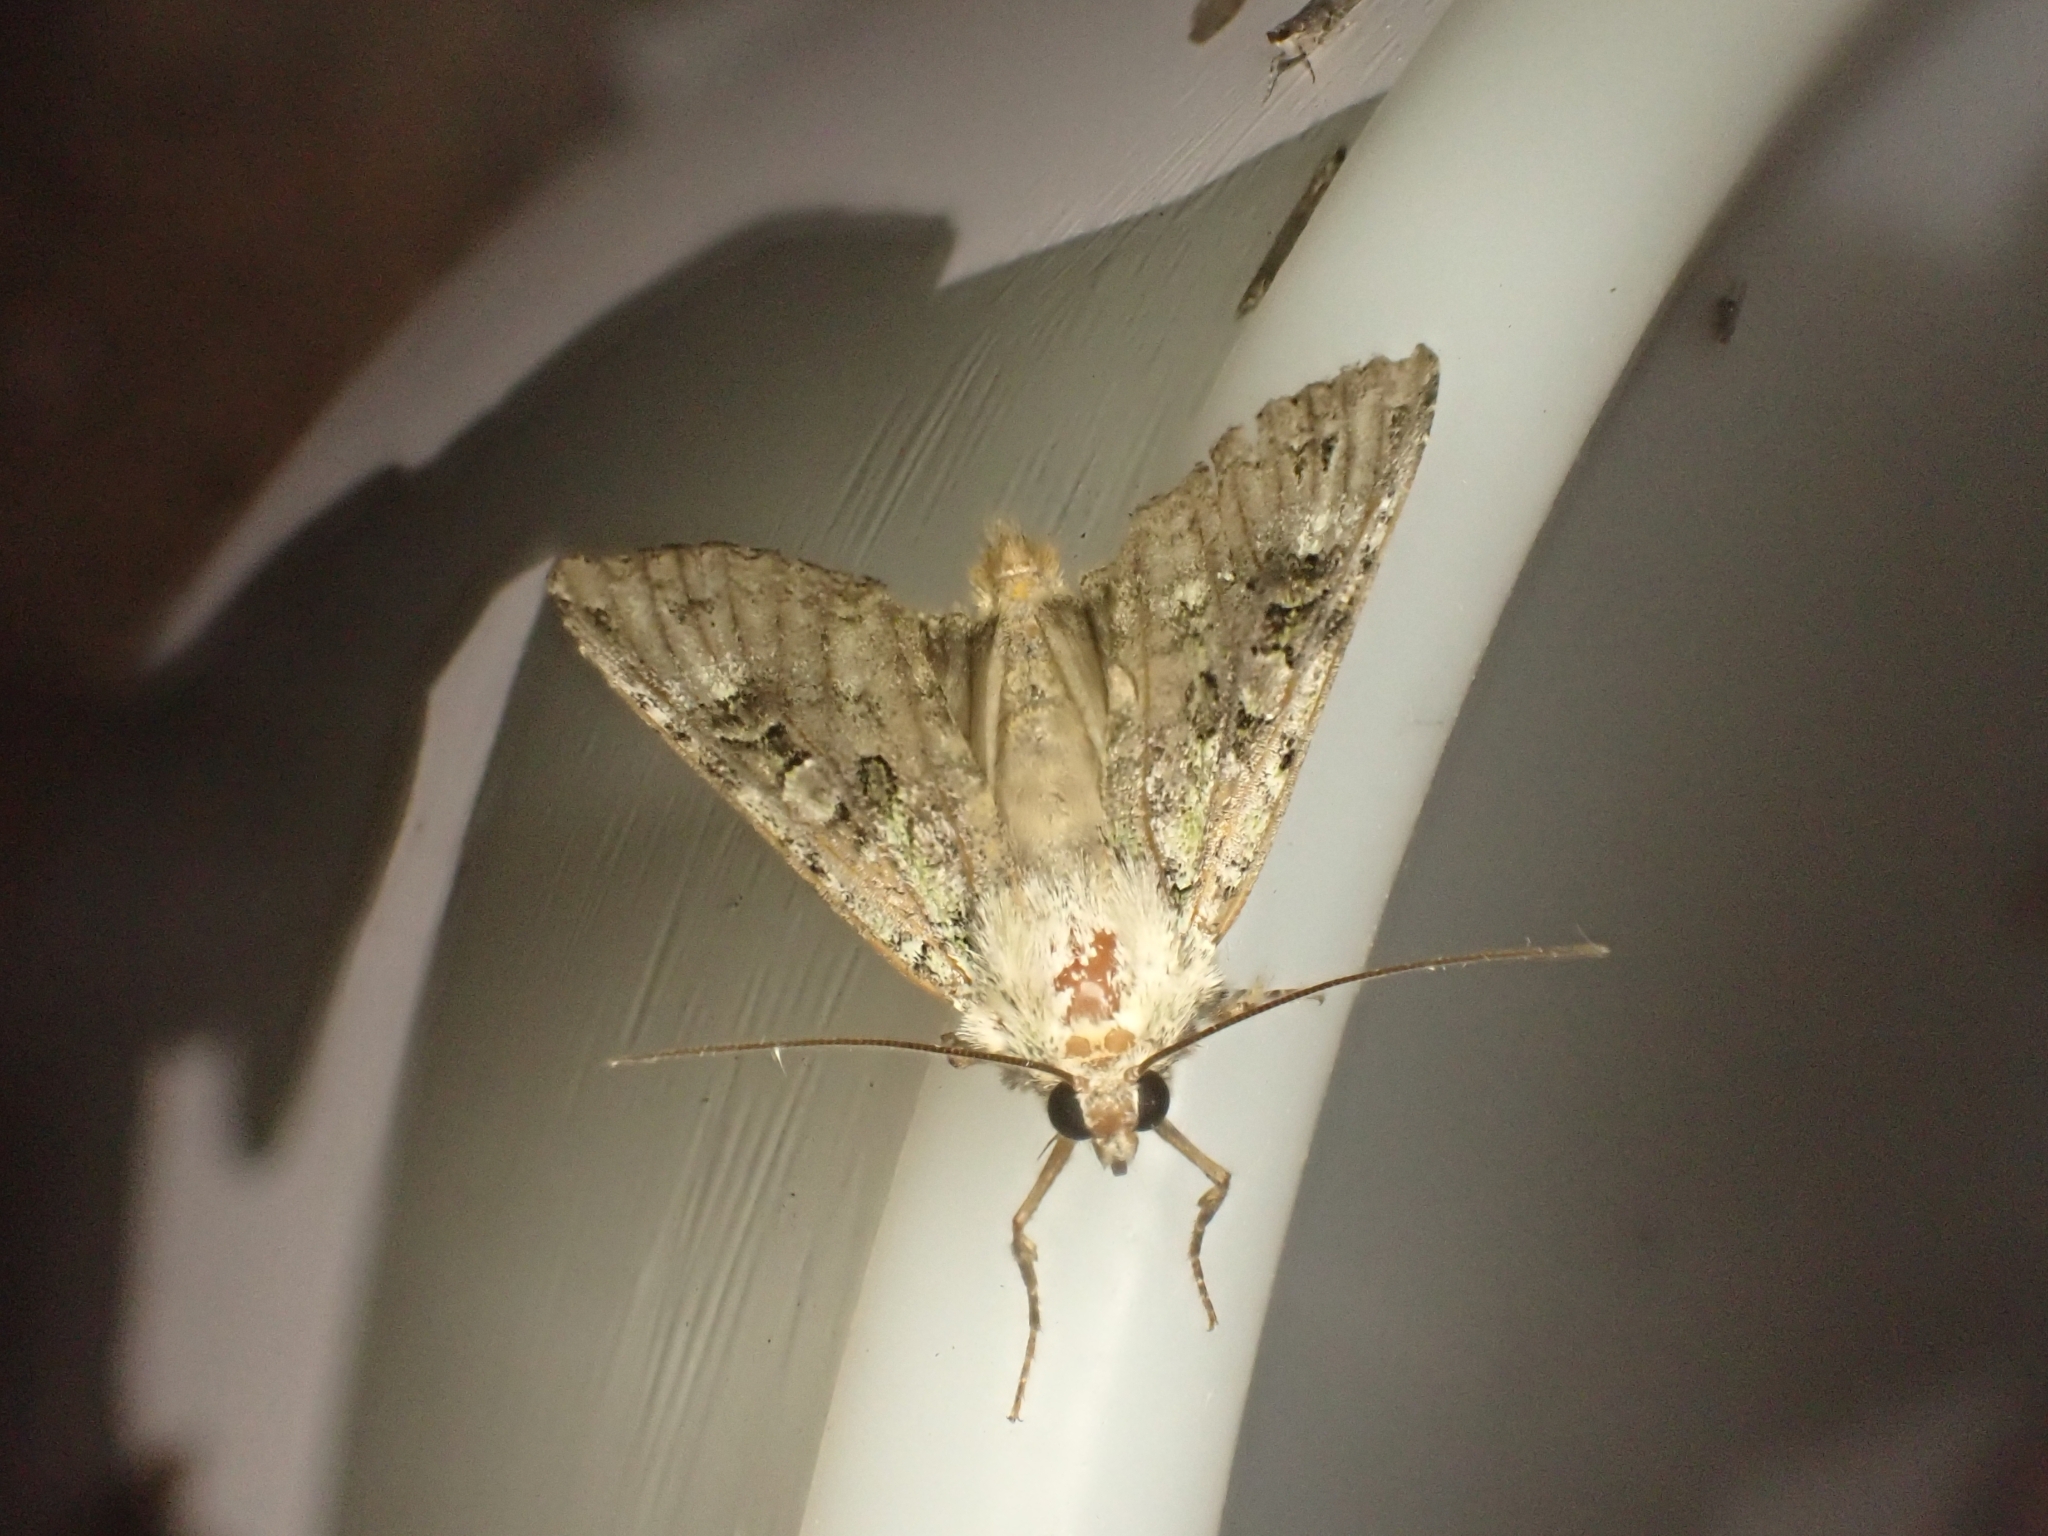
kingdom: Animalia
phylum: Arthropoda
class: Insecta
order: Lepidoptera
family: Noctuidae
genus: Anaplectoides
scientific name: Anaplectoides prasina
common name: Green arches
